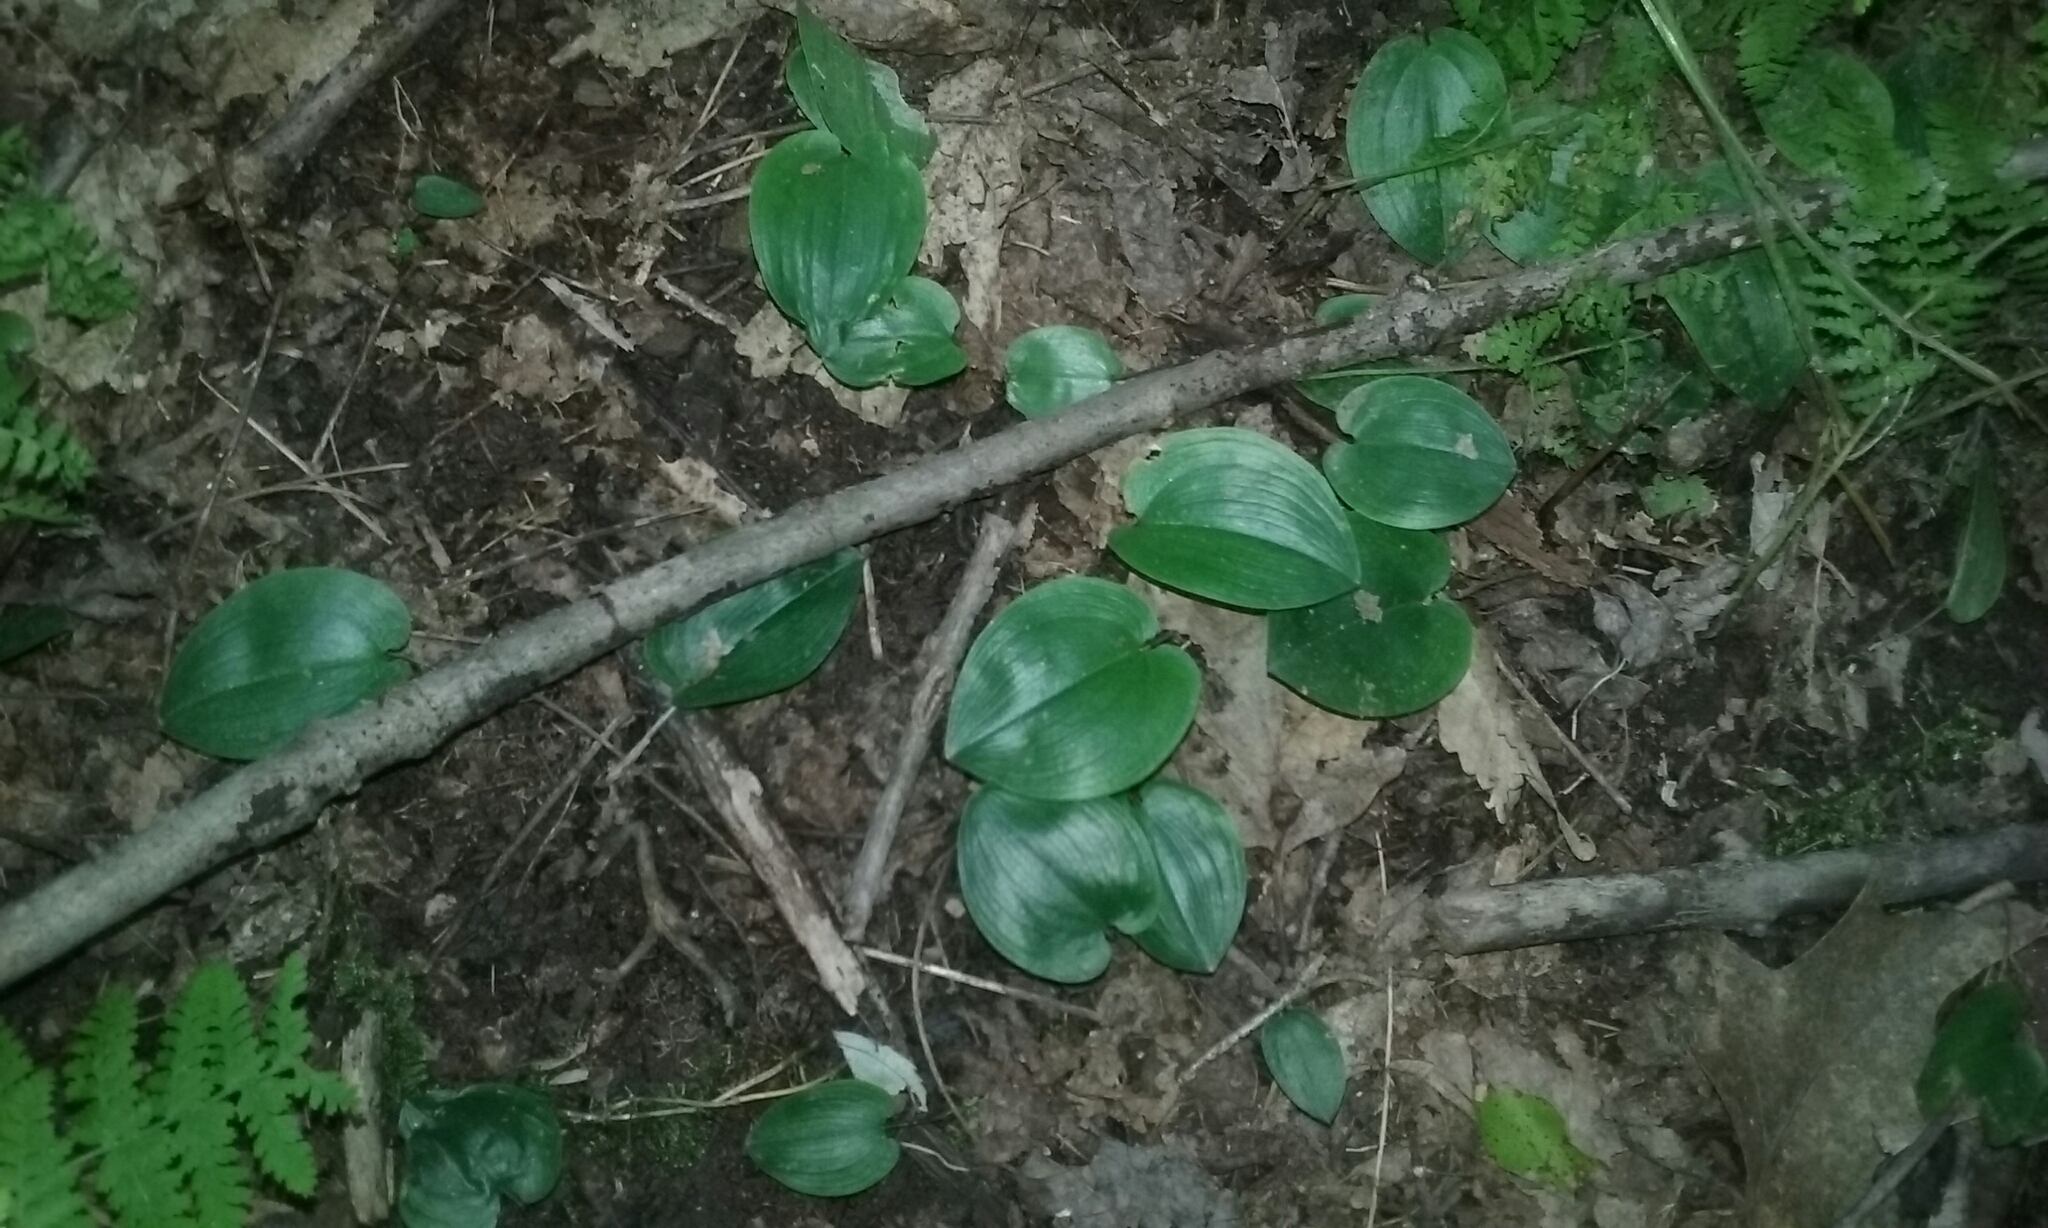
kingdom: Plantae
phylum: Tracheophyta
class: Liliopsida
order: Asparagales
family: Asparagaceae
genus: Maianthemum
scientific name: Maianthemum canadense
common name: False lily-of-the-valley
